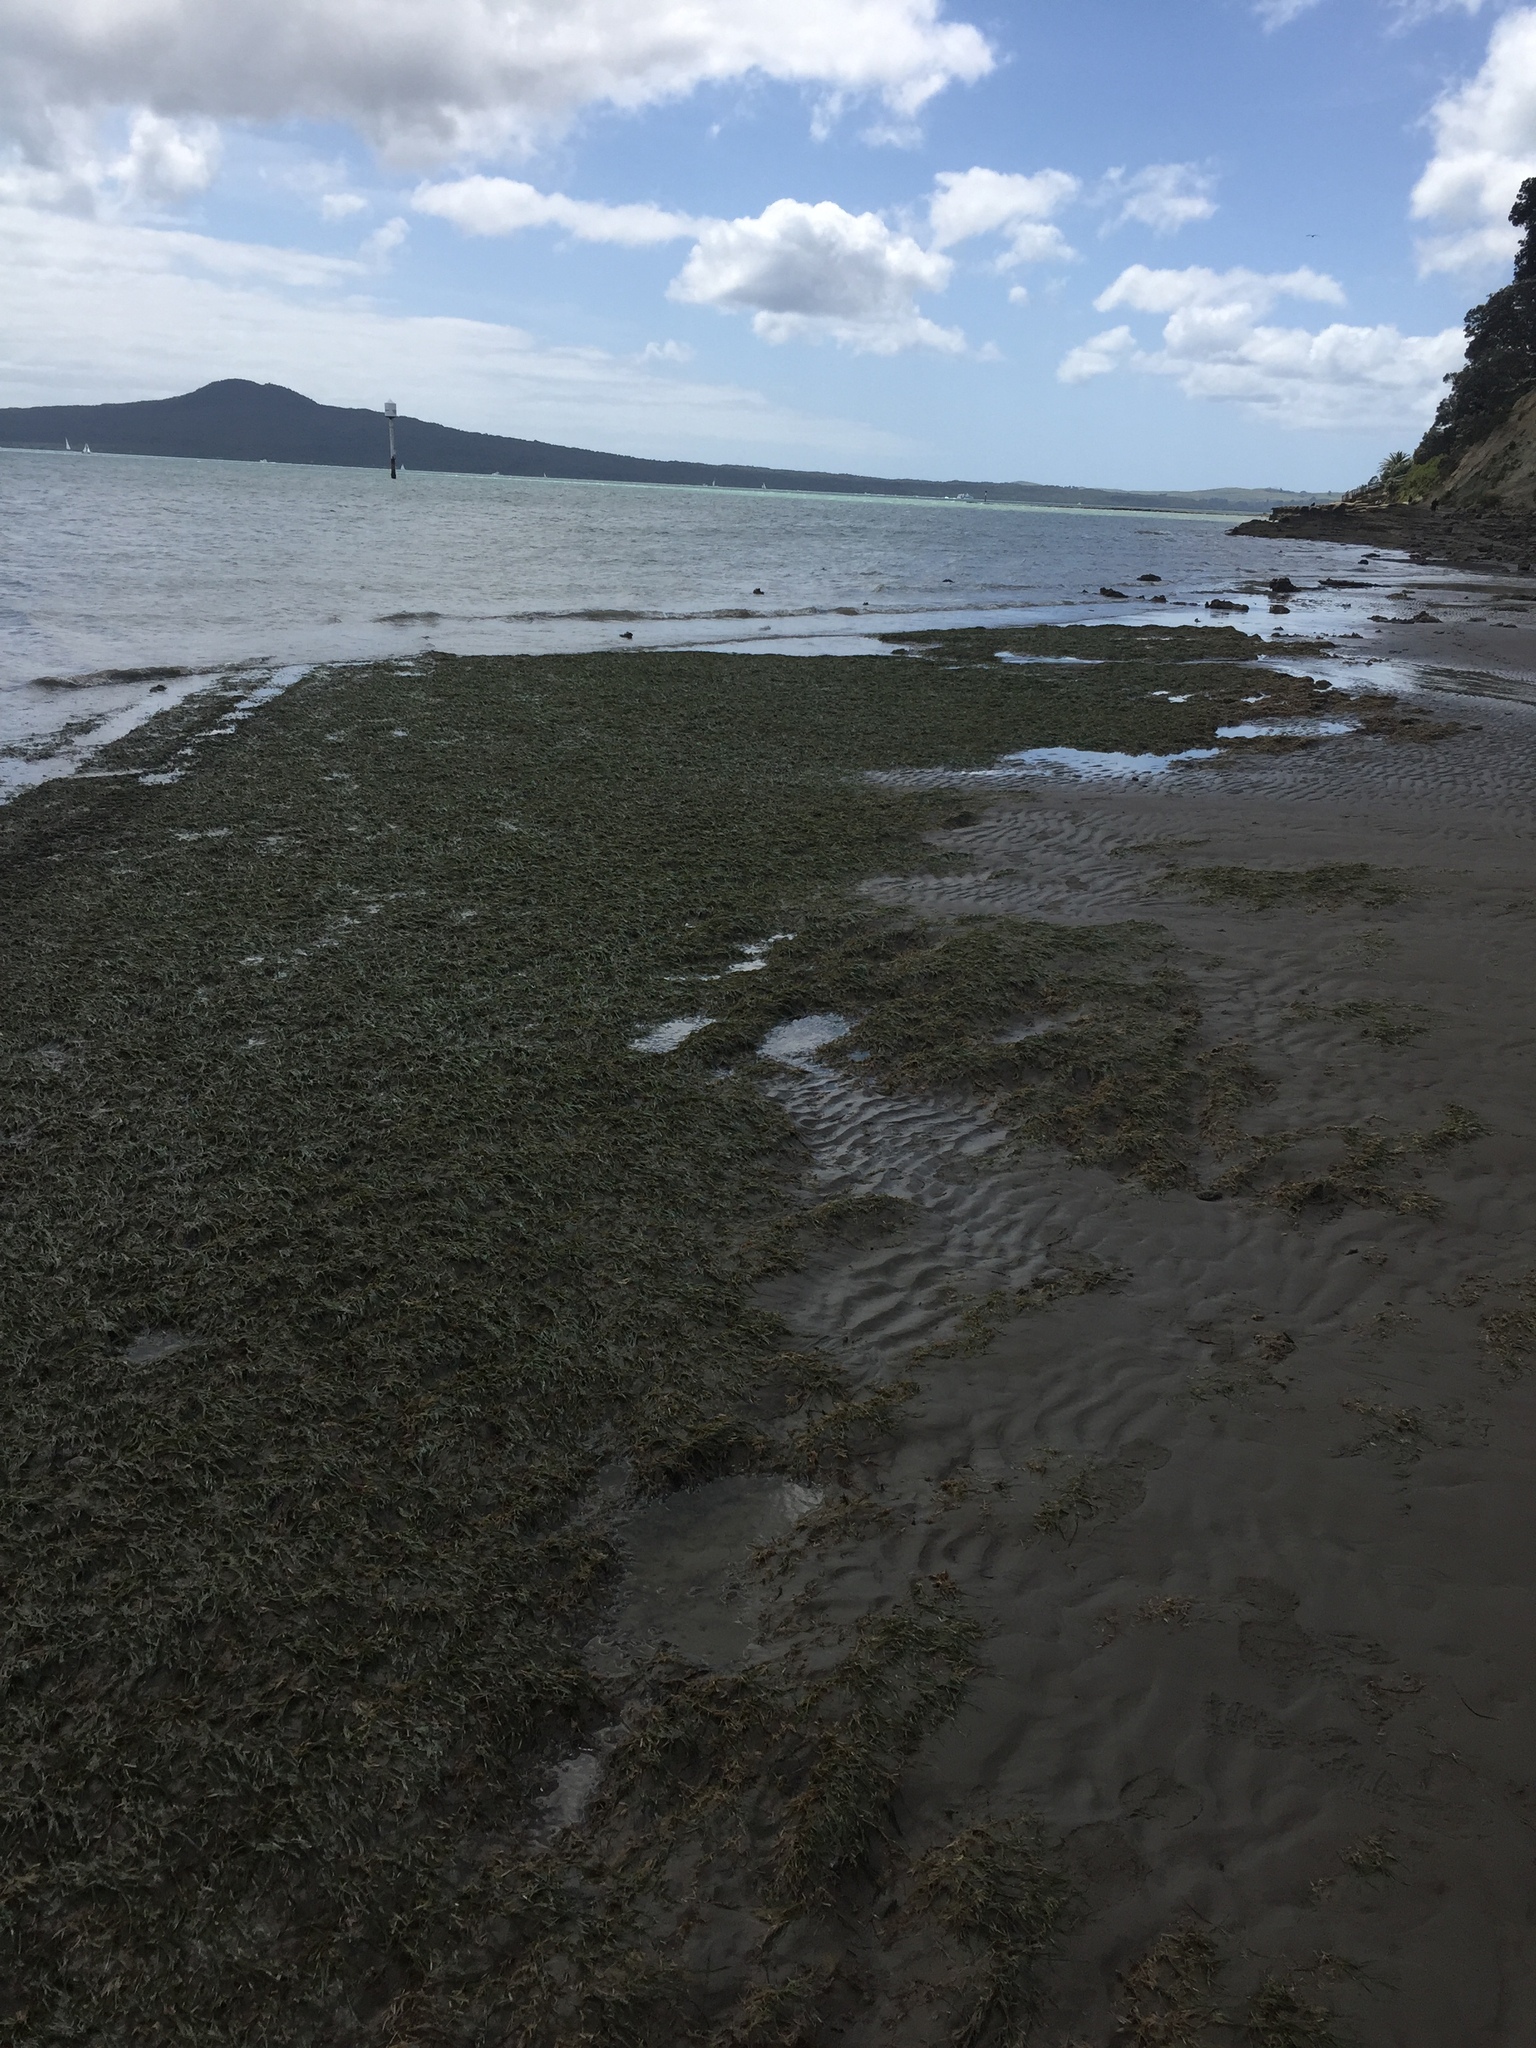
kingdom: Animalia
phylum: Mollusca
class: Gastropoda
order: Aplysiida
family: Aplysiidae
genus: Bursatella
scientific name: Bursatella leachii
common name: Shaggy sea hare
